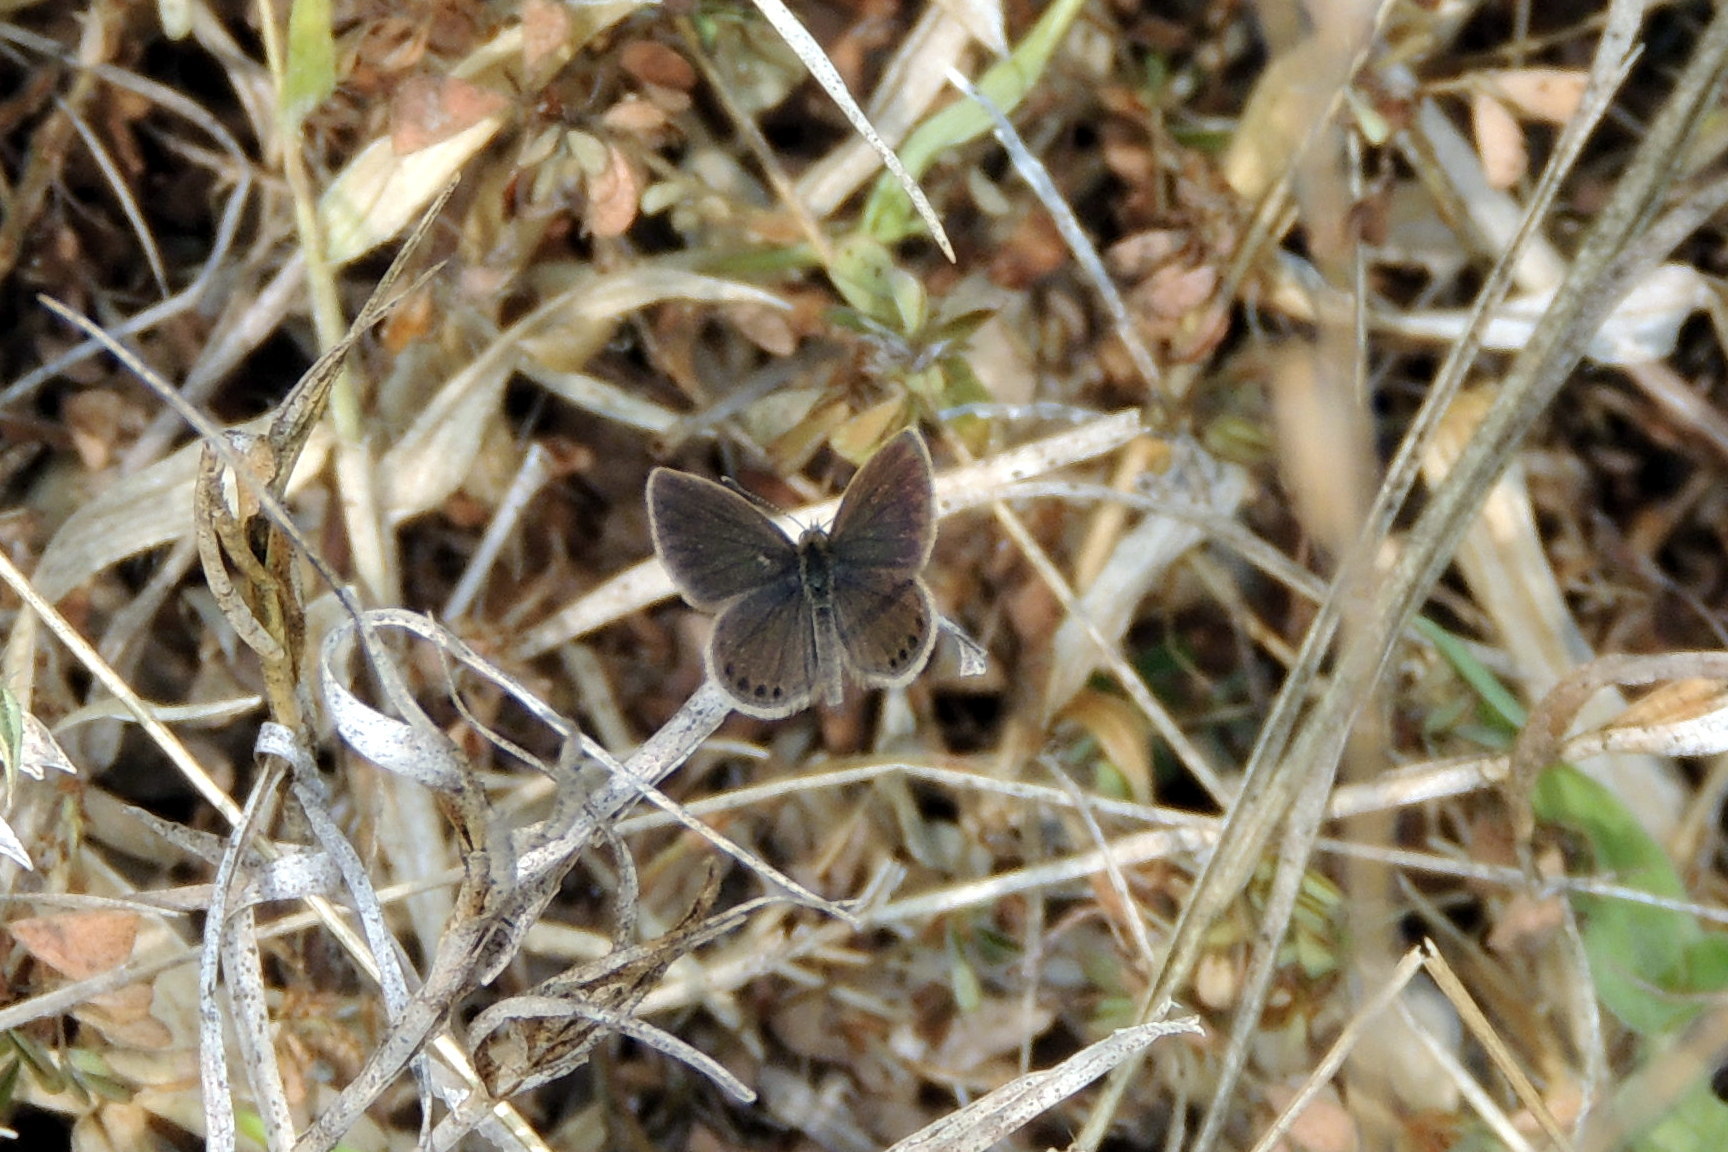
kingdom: Animalia
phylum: Arthropoda
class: Insecta
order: Lepidoptera
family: Lycaenidae
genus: Freyeria
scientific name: Freyeria putli
